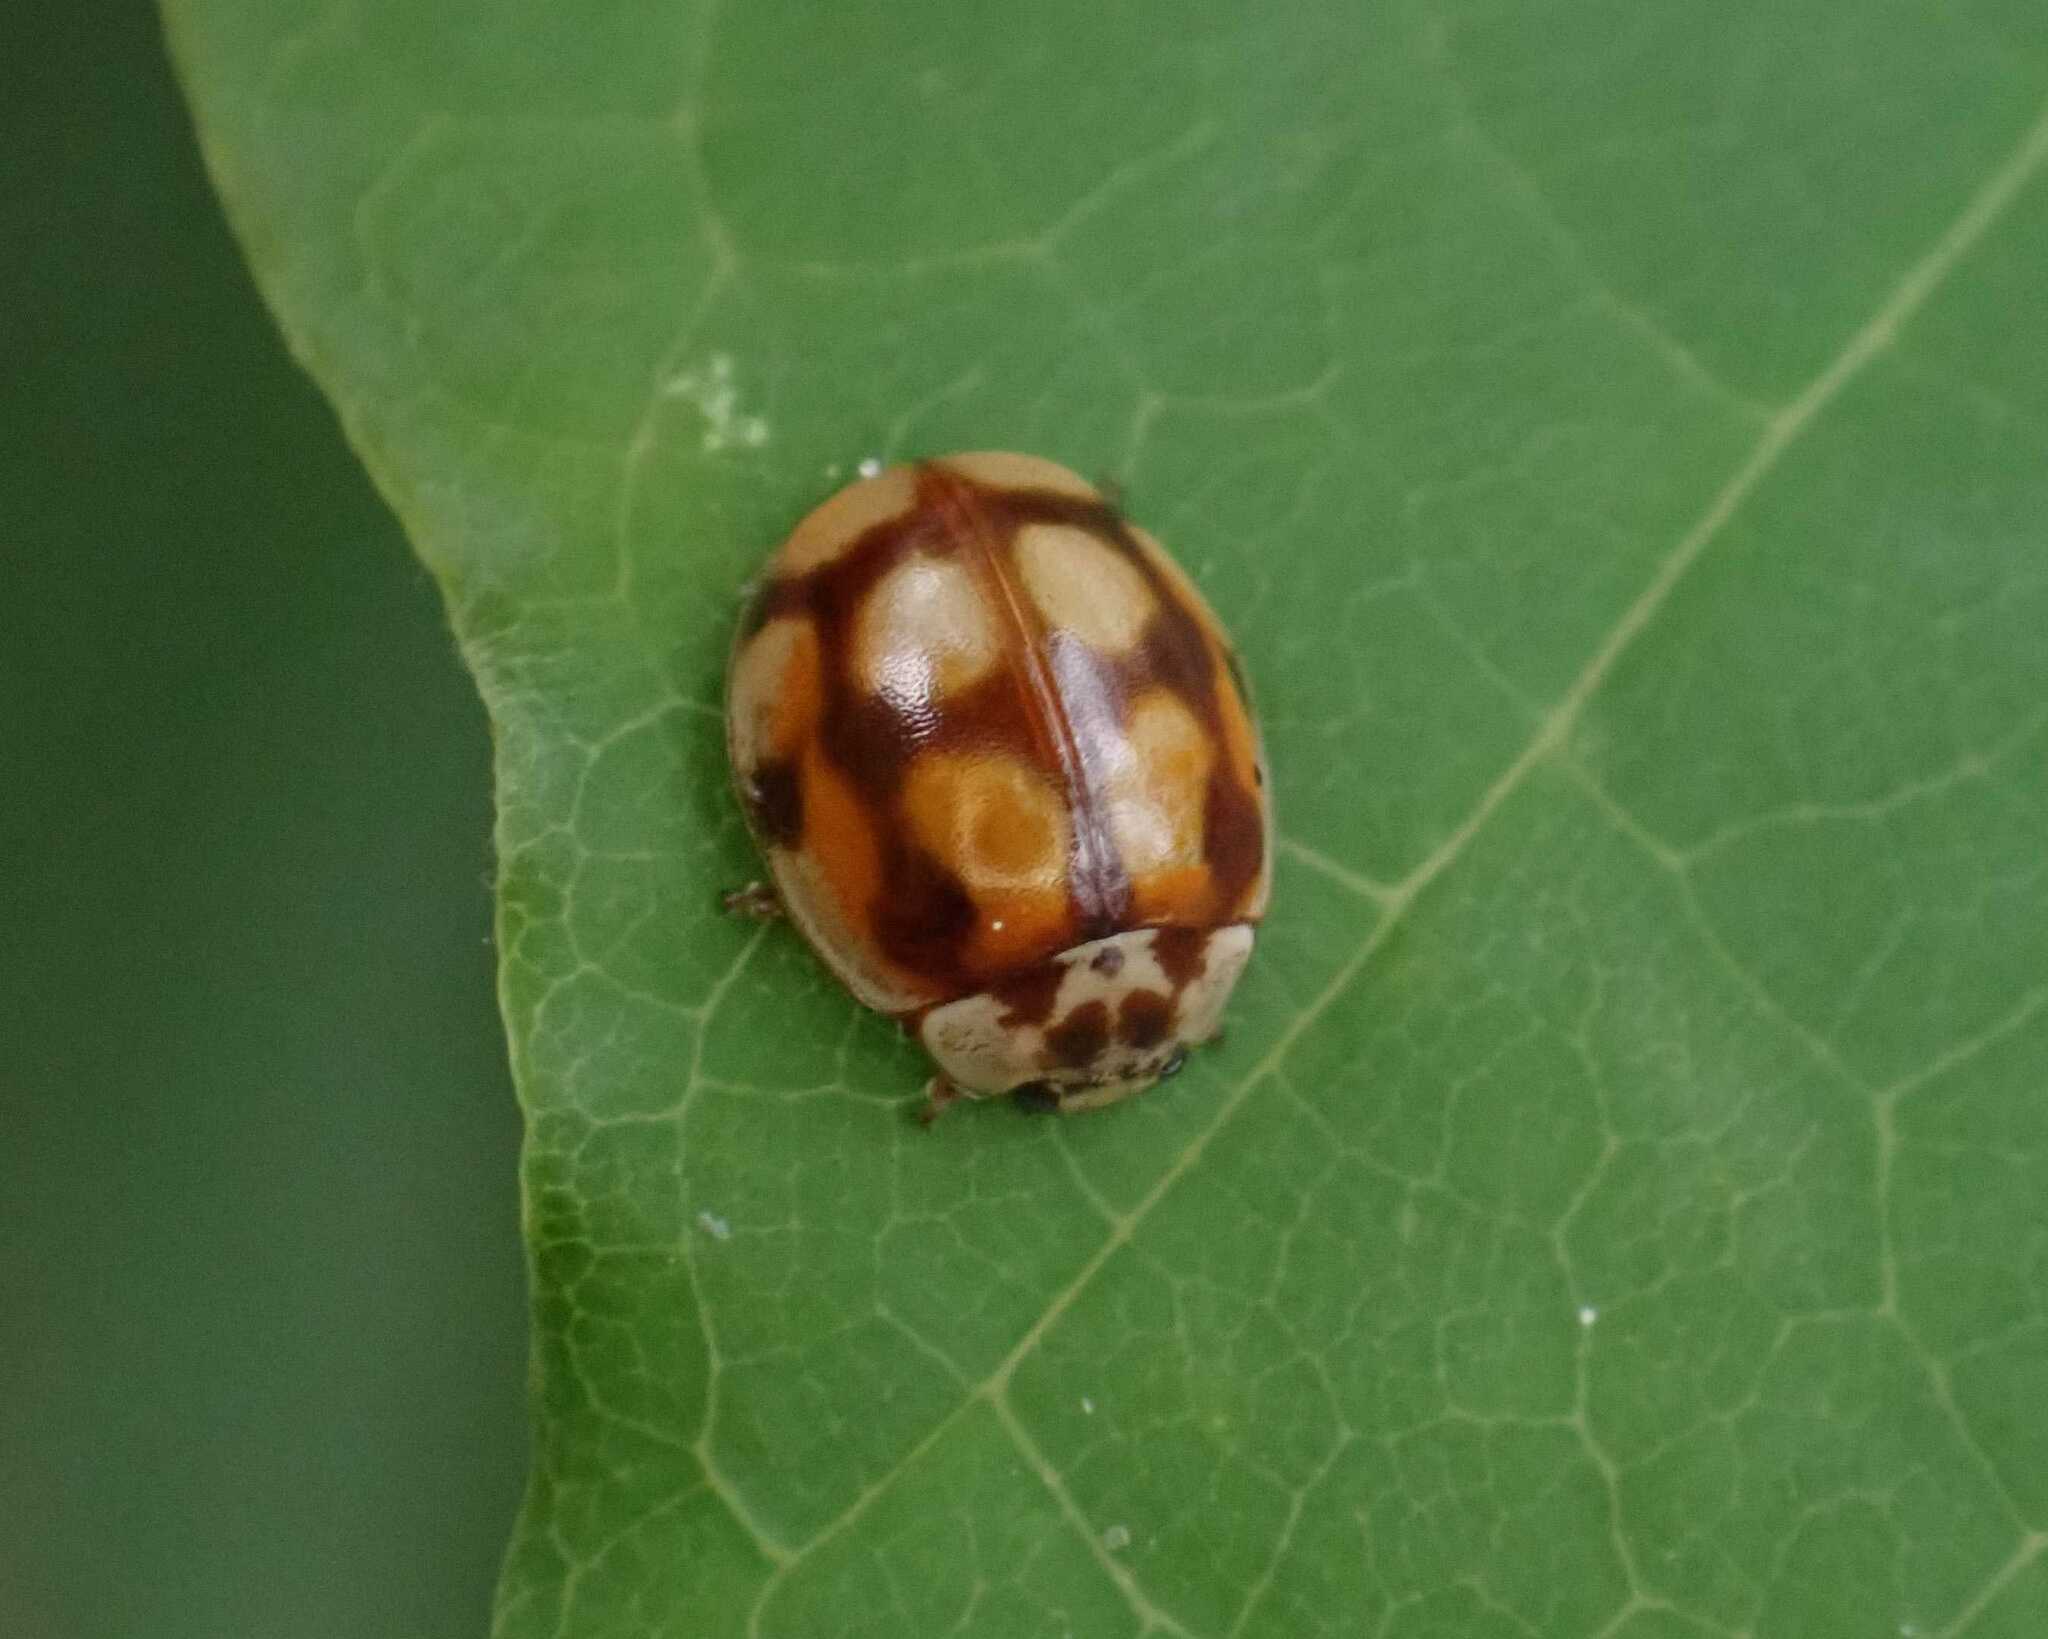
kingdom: Animalia
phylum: Arthropoda
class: Insecta
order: Coleoptera
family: Coccinellidae
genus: Adalia
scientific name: Adalia decempunctata
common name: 10-spot ladybird
